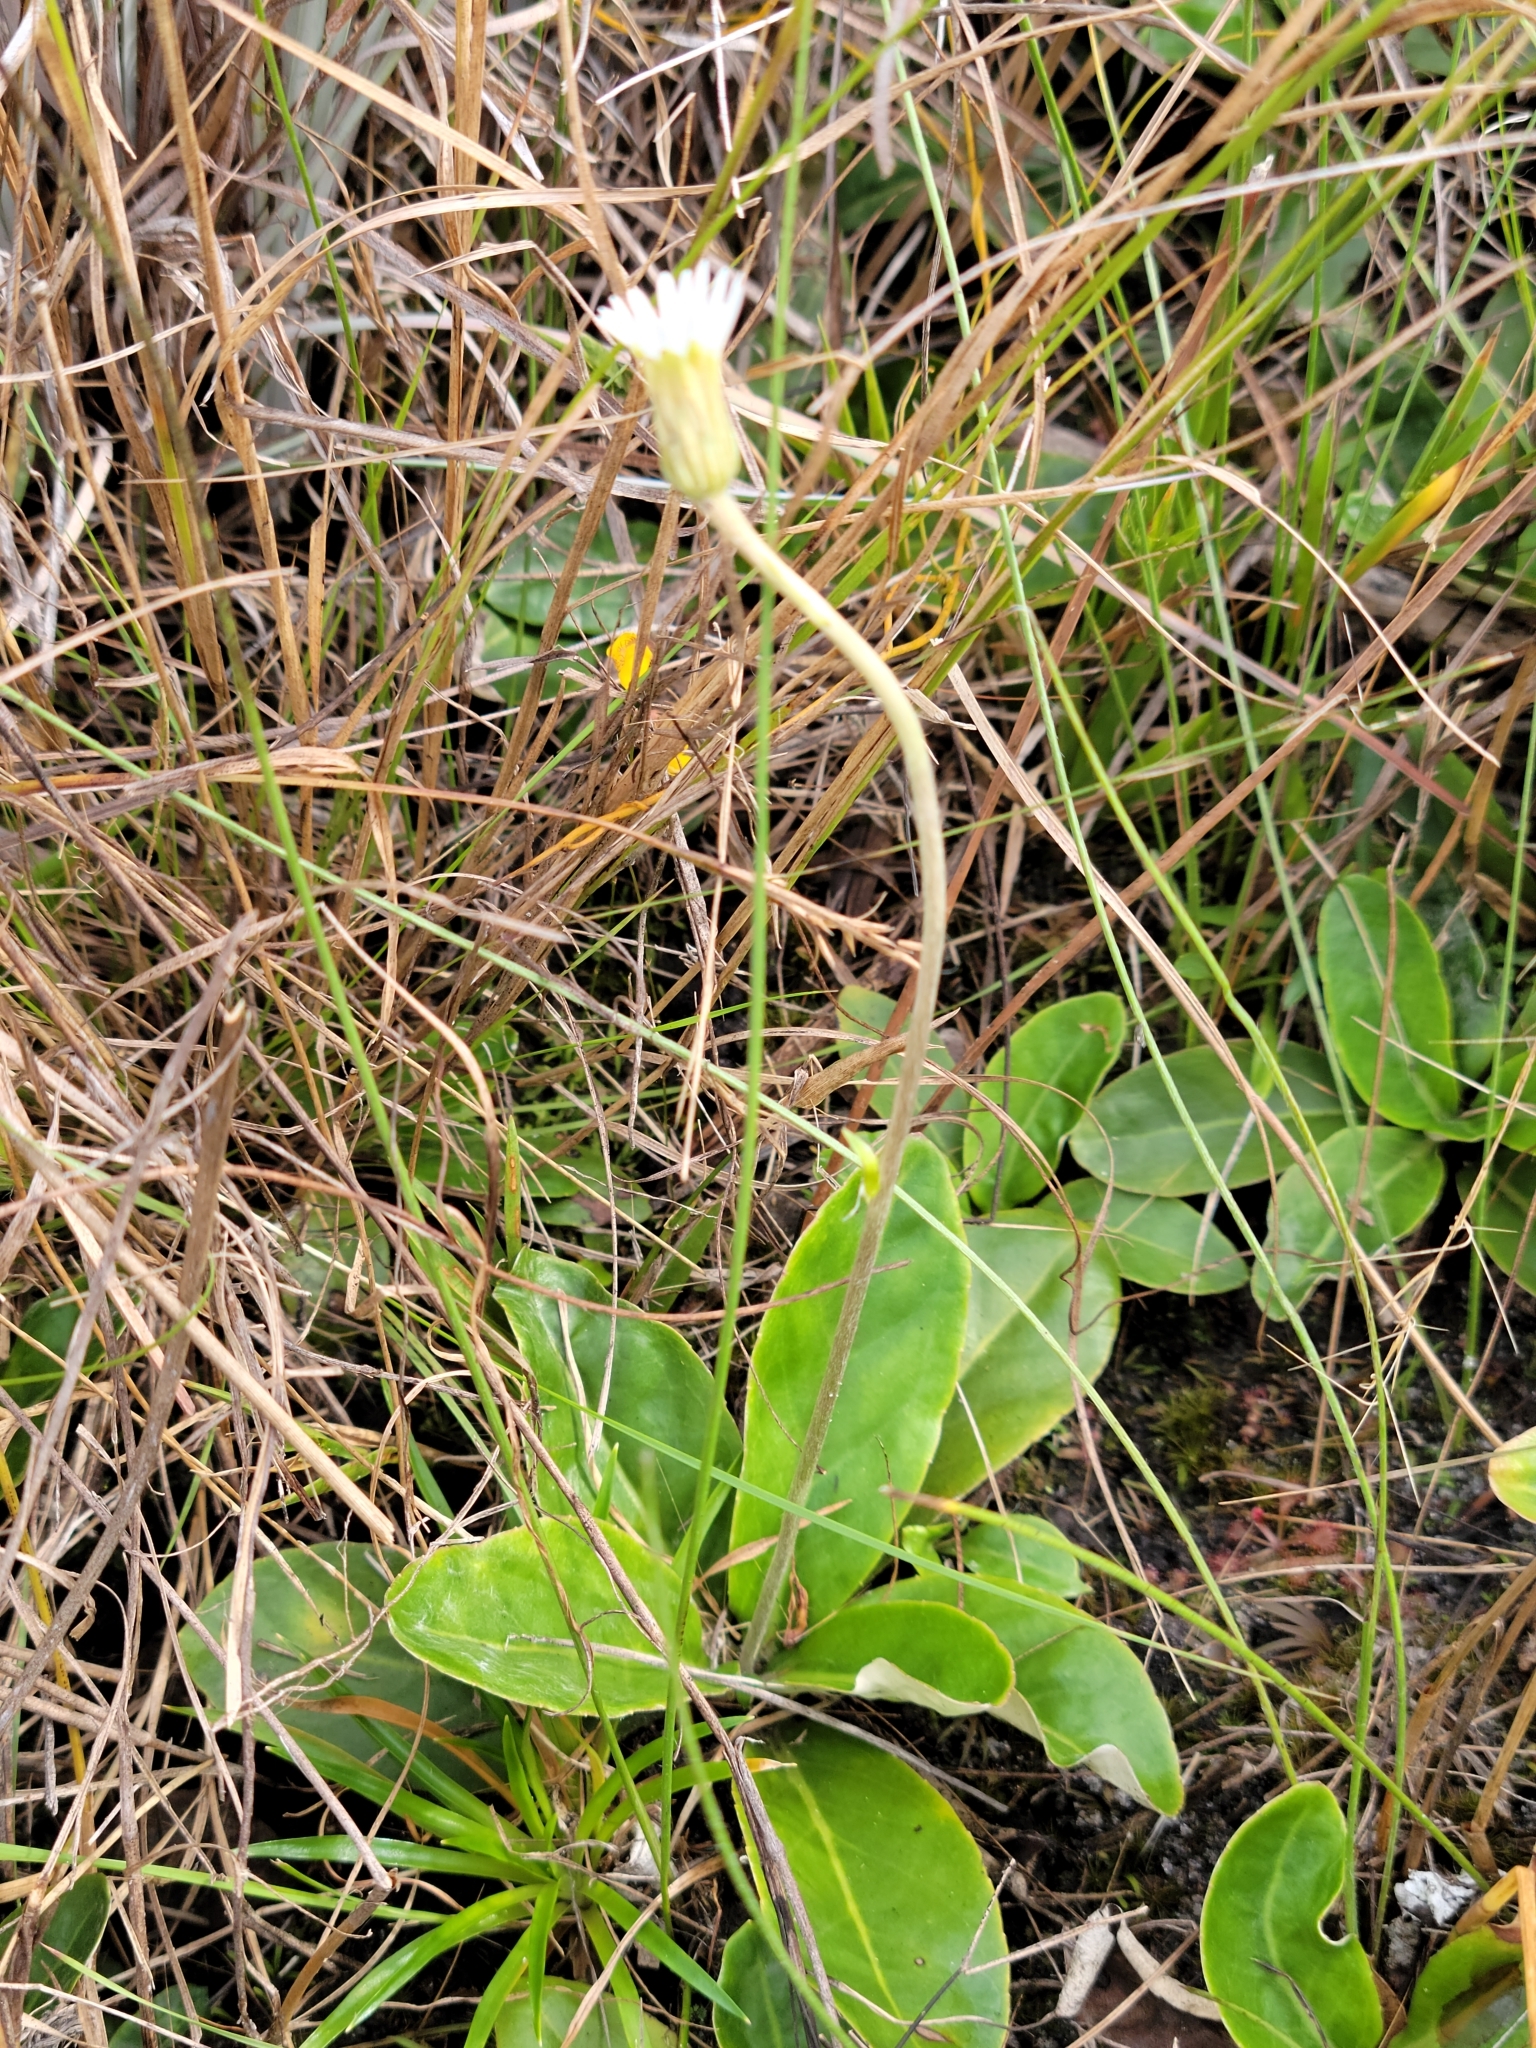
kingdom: Plantae
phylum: Tracheophyta
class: Magnoliopsida
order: Asterales
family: Asteraceae
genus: Chaptalia
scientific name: Chaptalia tomentosa
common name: Woolly sunbonnet
